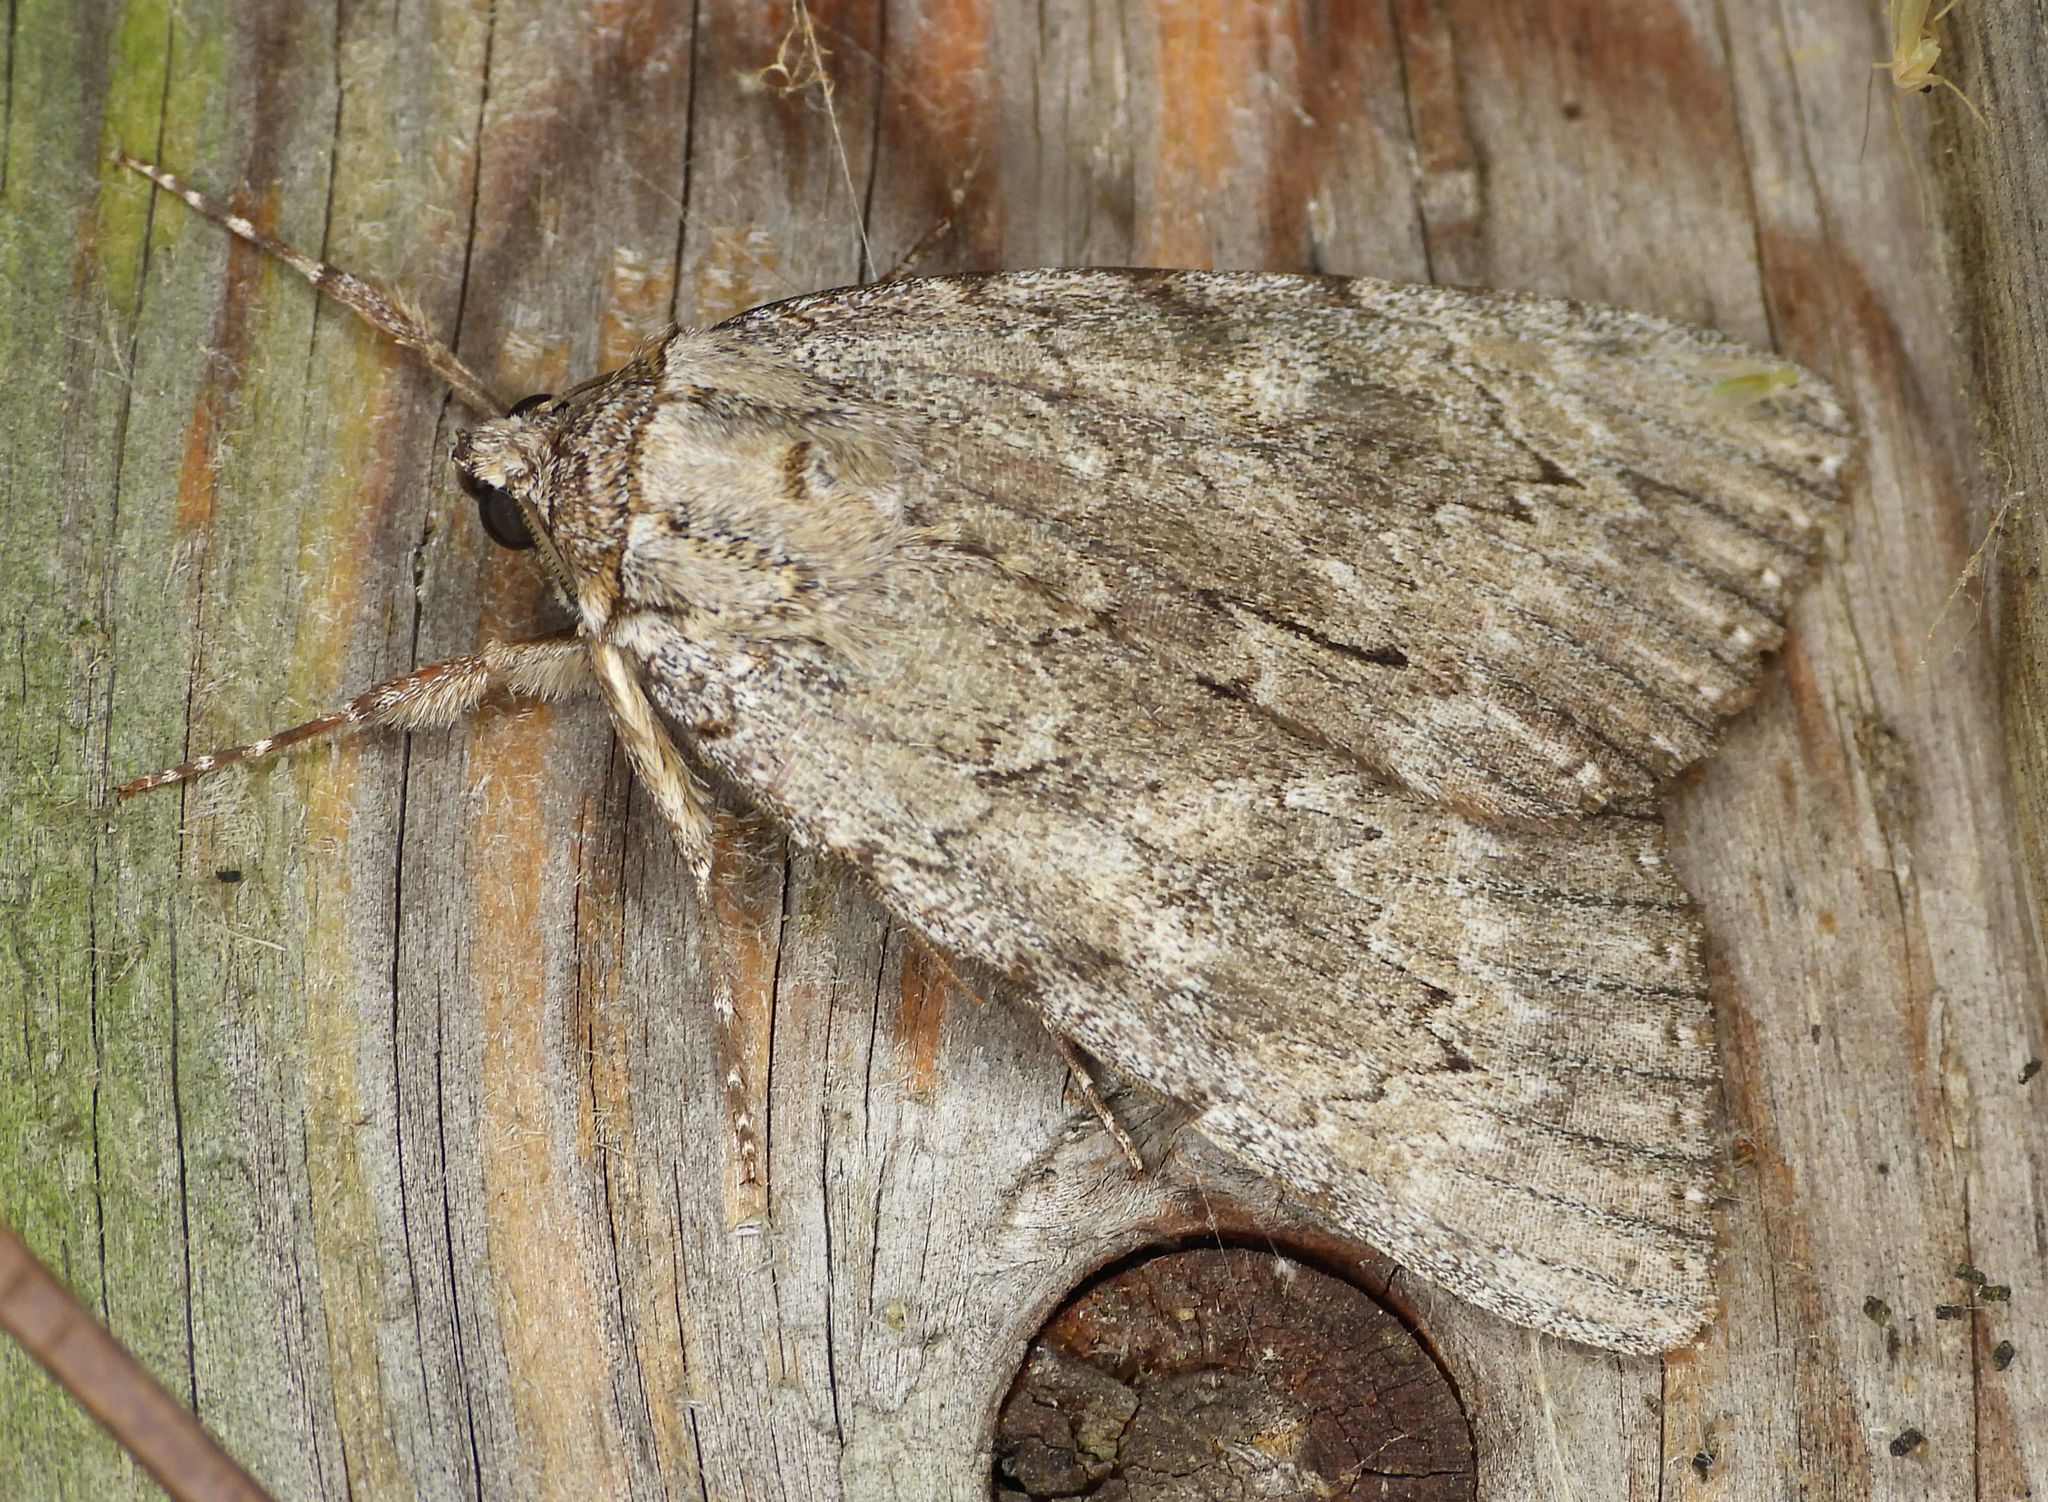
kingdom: Animalia
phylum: Arthropoda
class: Insecta
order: Lepidoptera
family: Erebidae
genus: Catocala
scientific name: Catocala habilis
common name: Habilis underwing
